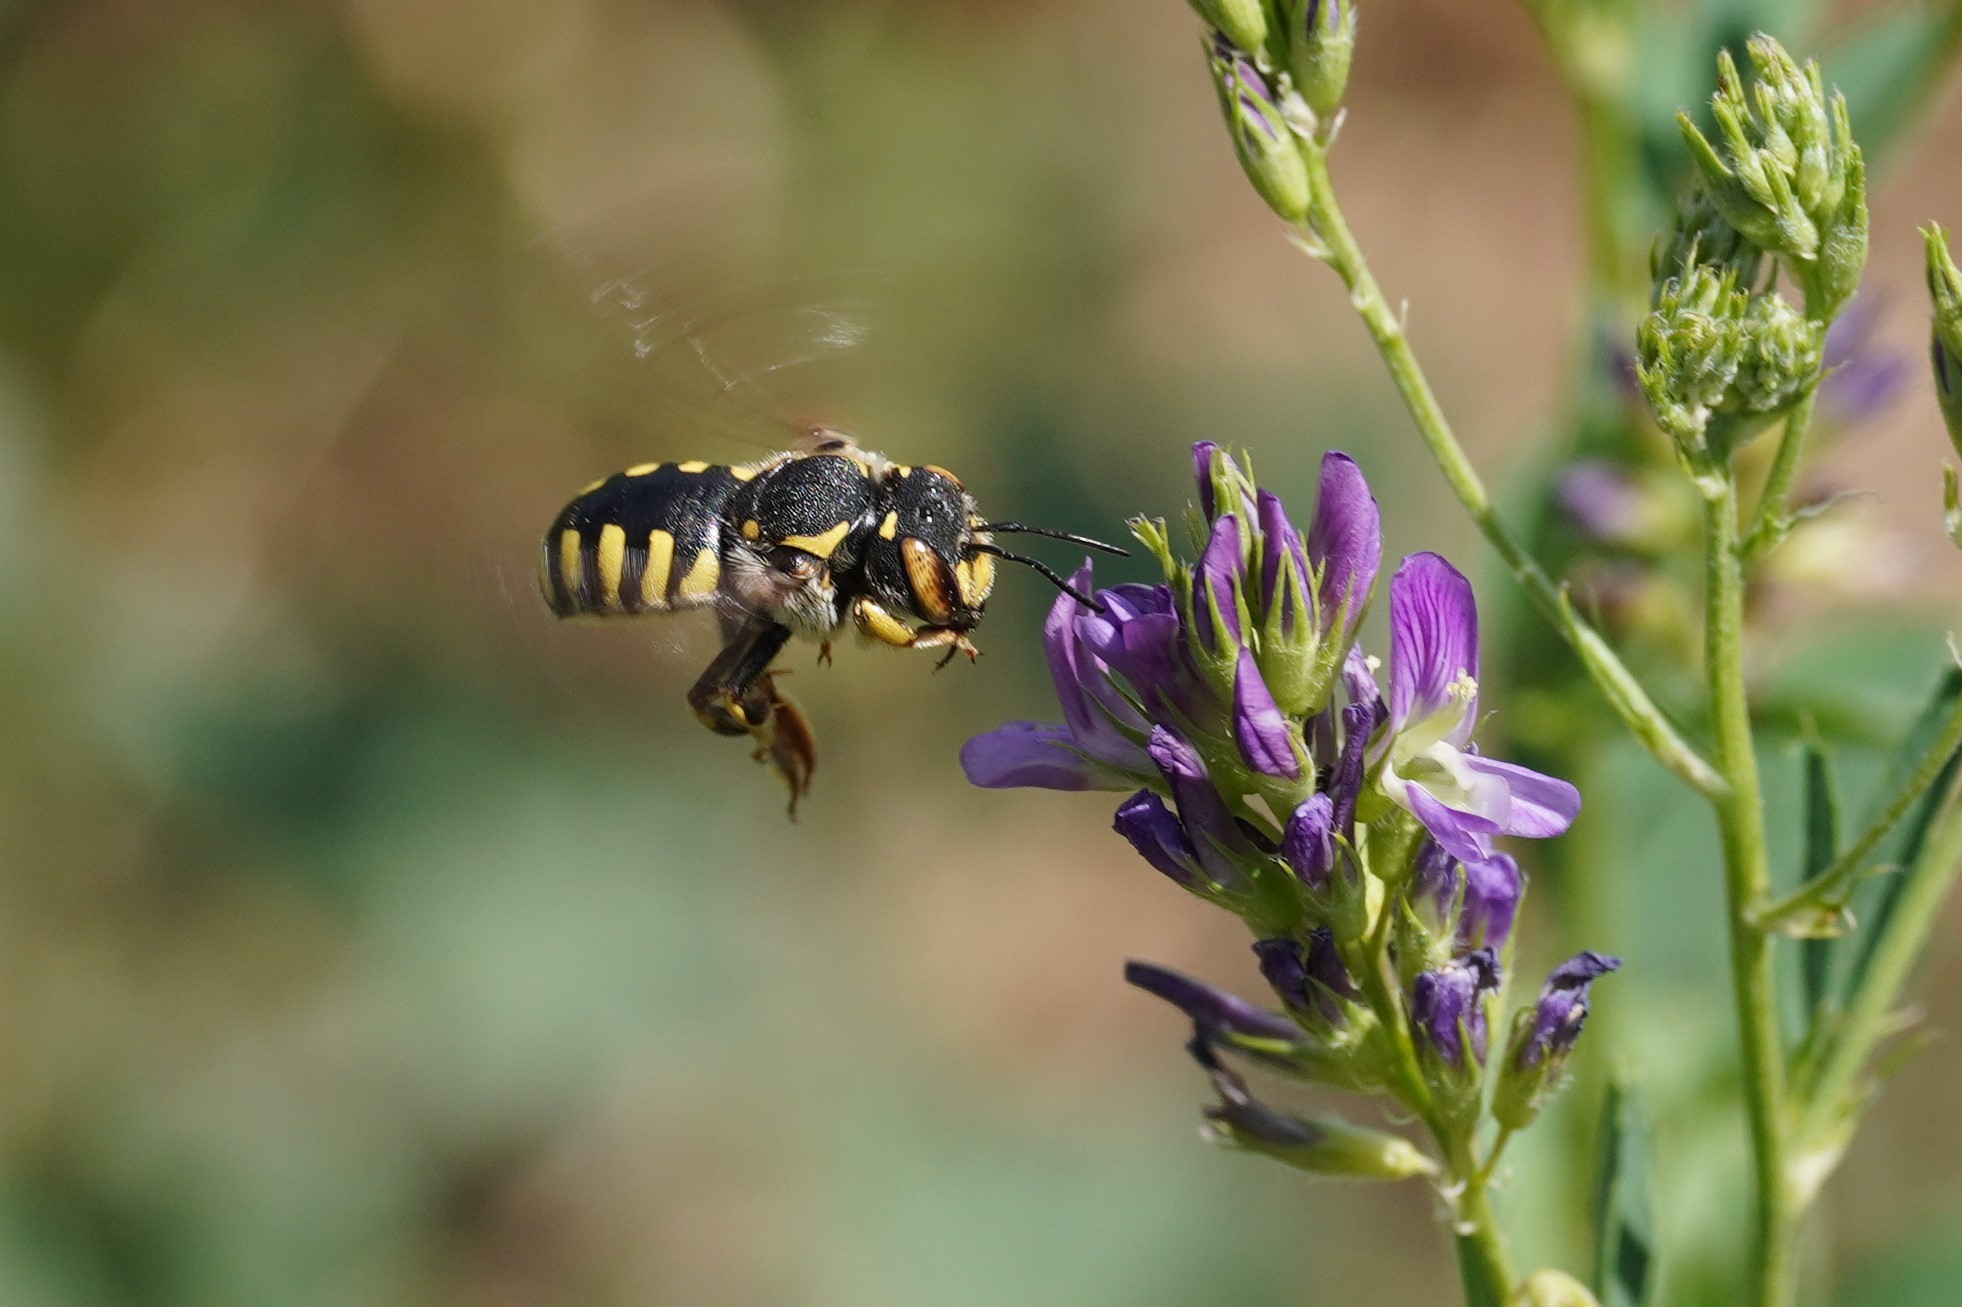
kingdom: Animalia
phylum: Arthropoda
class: Insecta
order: Hymenoptera
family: Megachilidae
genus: Anthidium
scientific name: Anthidium florentinum
